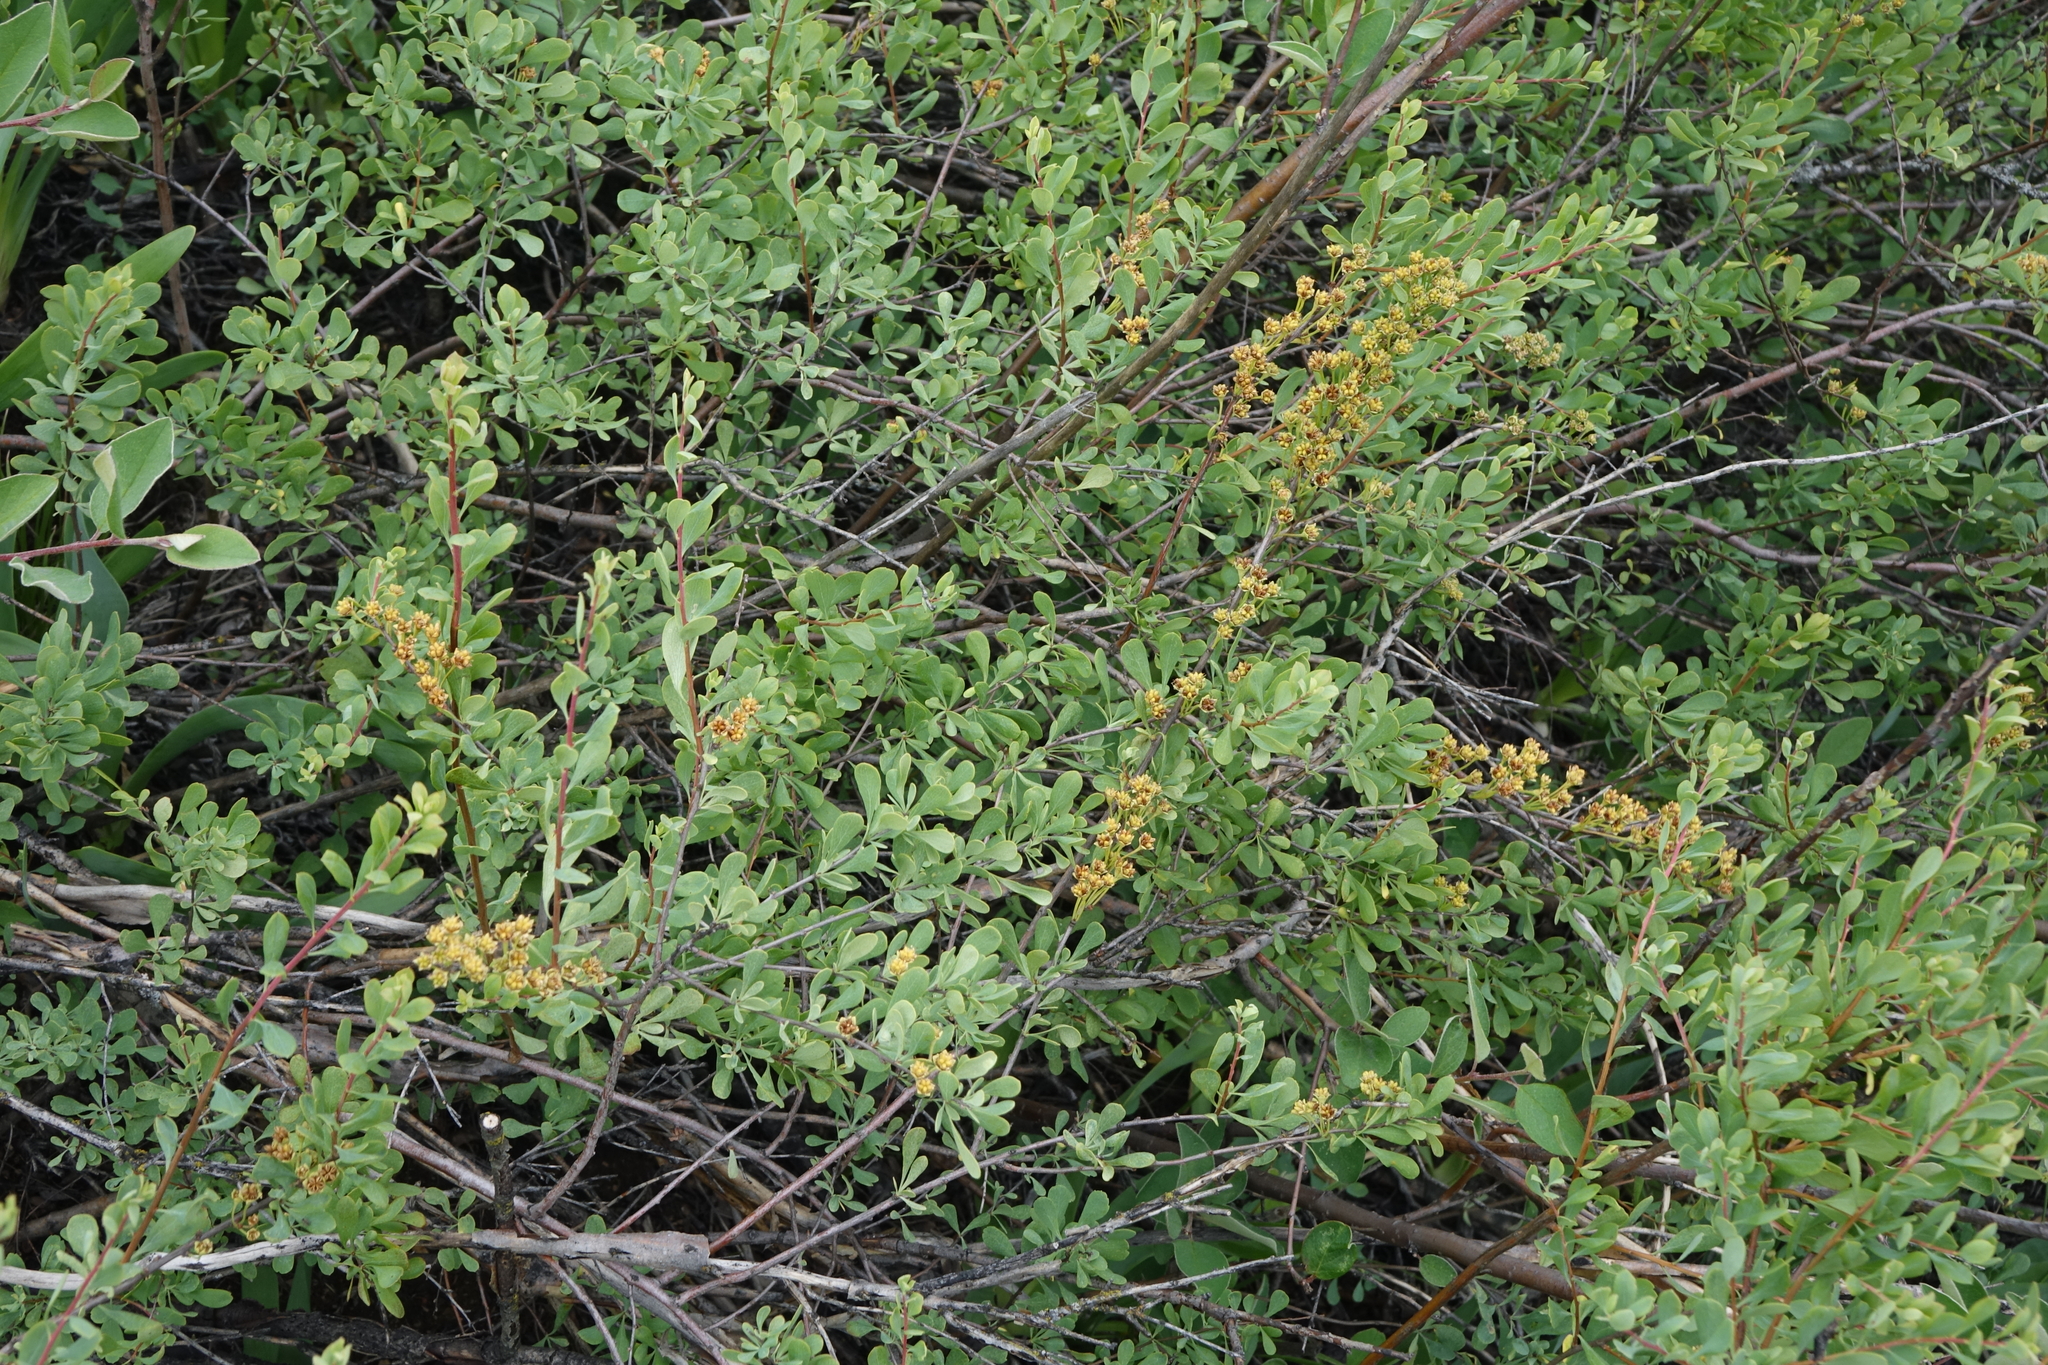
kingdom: Plantae
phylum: Tracheophyta
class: Magnoliopsida
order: Rosales
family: Rosaceae
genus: Spiraea
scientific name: Spiraea hypericifolia
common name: Iberian spirea
